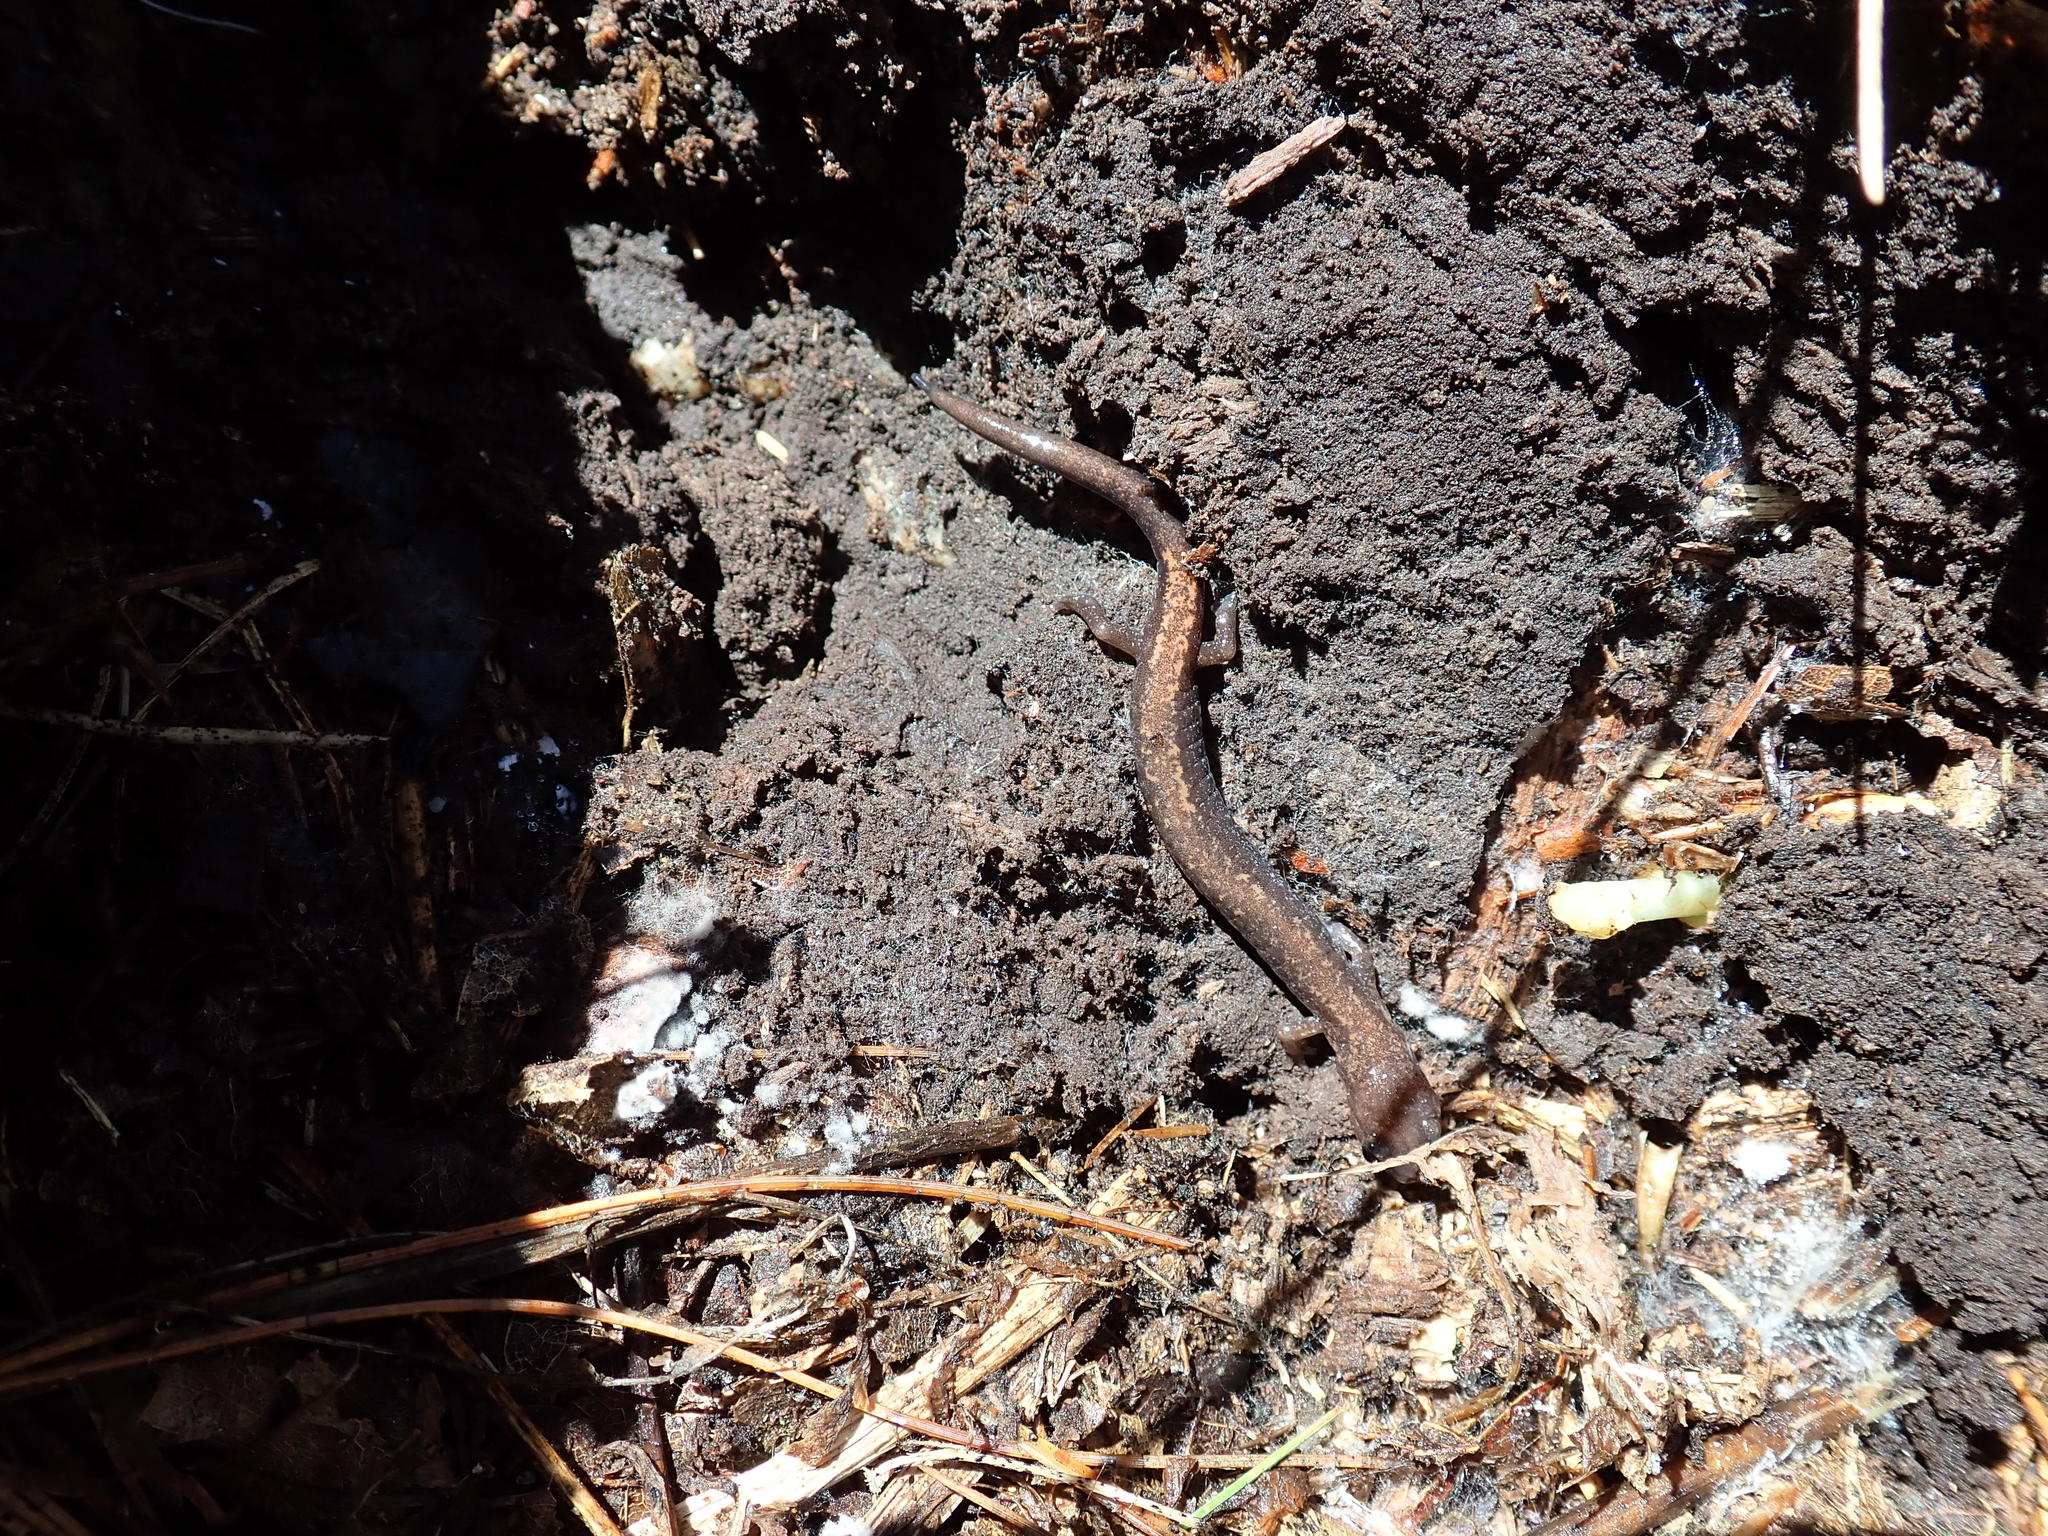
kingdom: Animalia
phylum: Chordata
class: Amphibia
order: Caudata
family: Plethodontidae
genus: Plethodon
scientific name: Plethodon cinereus
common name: Redback salamander
